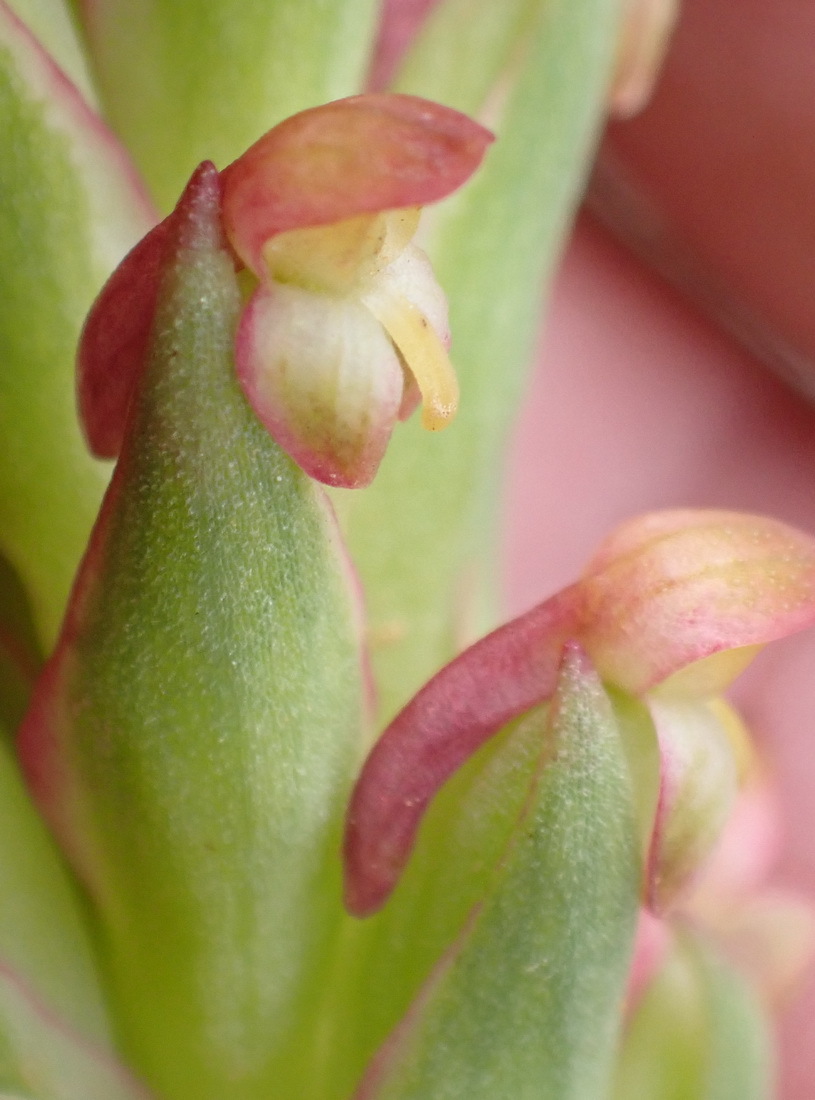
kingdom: Plantae
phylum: Tracheophyta
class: Liliopsida
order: Asparagales
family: Orchidaceae
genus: Disa
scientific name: Disa bracteata
